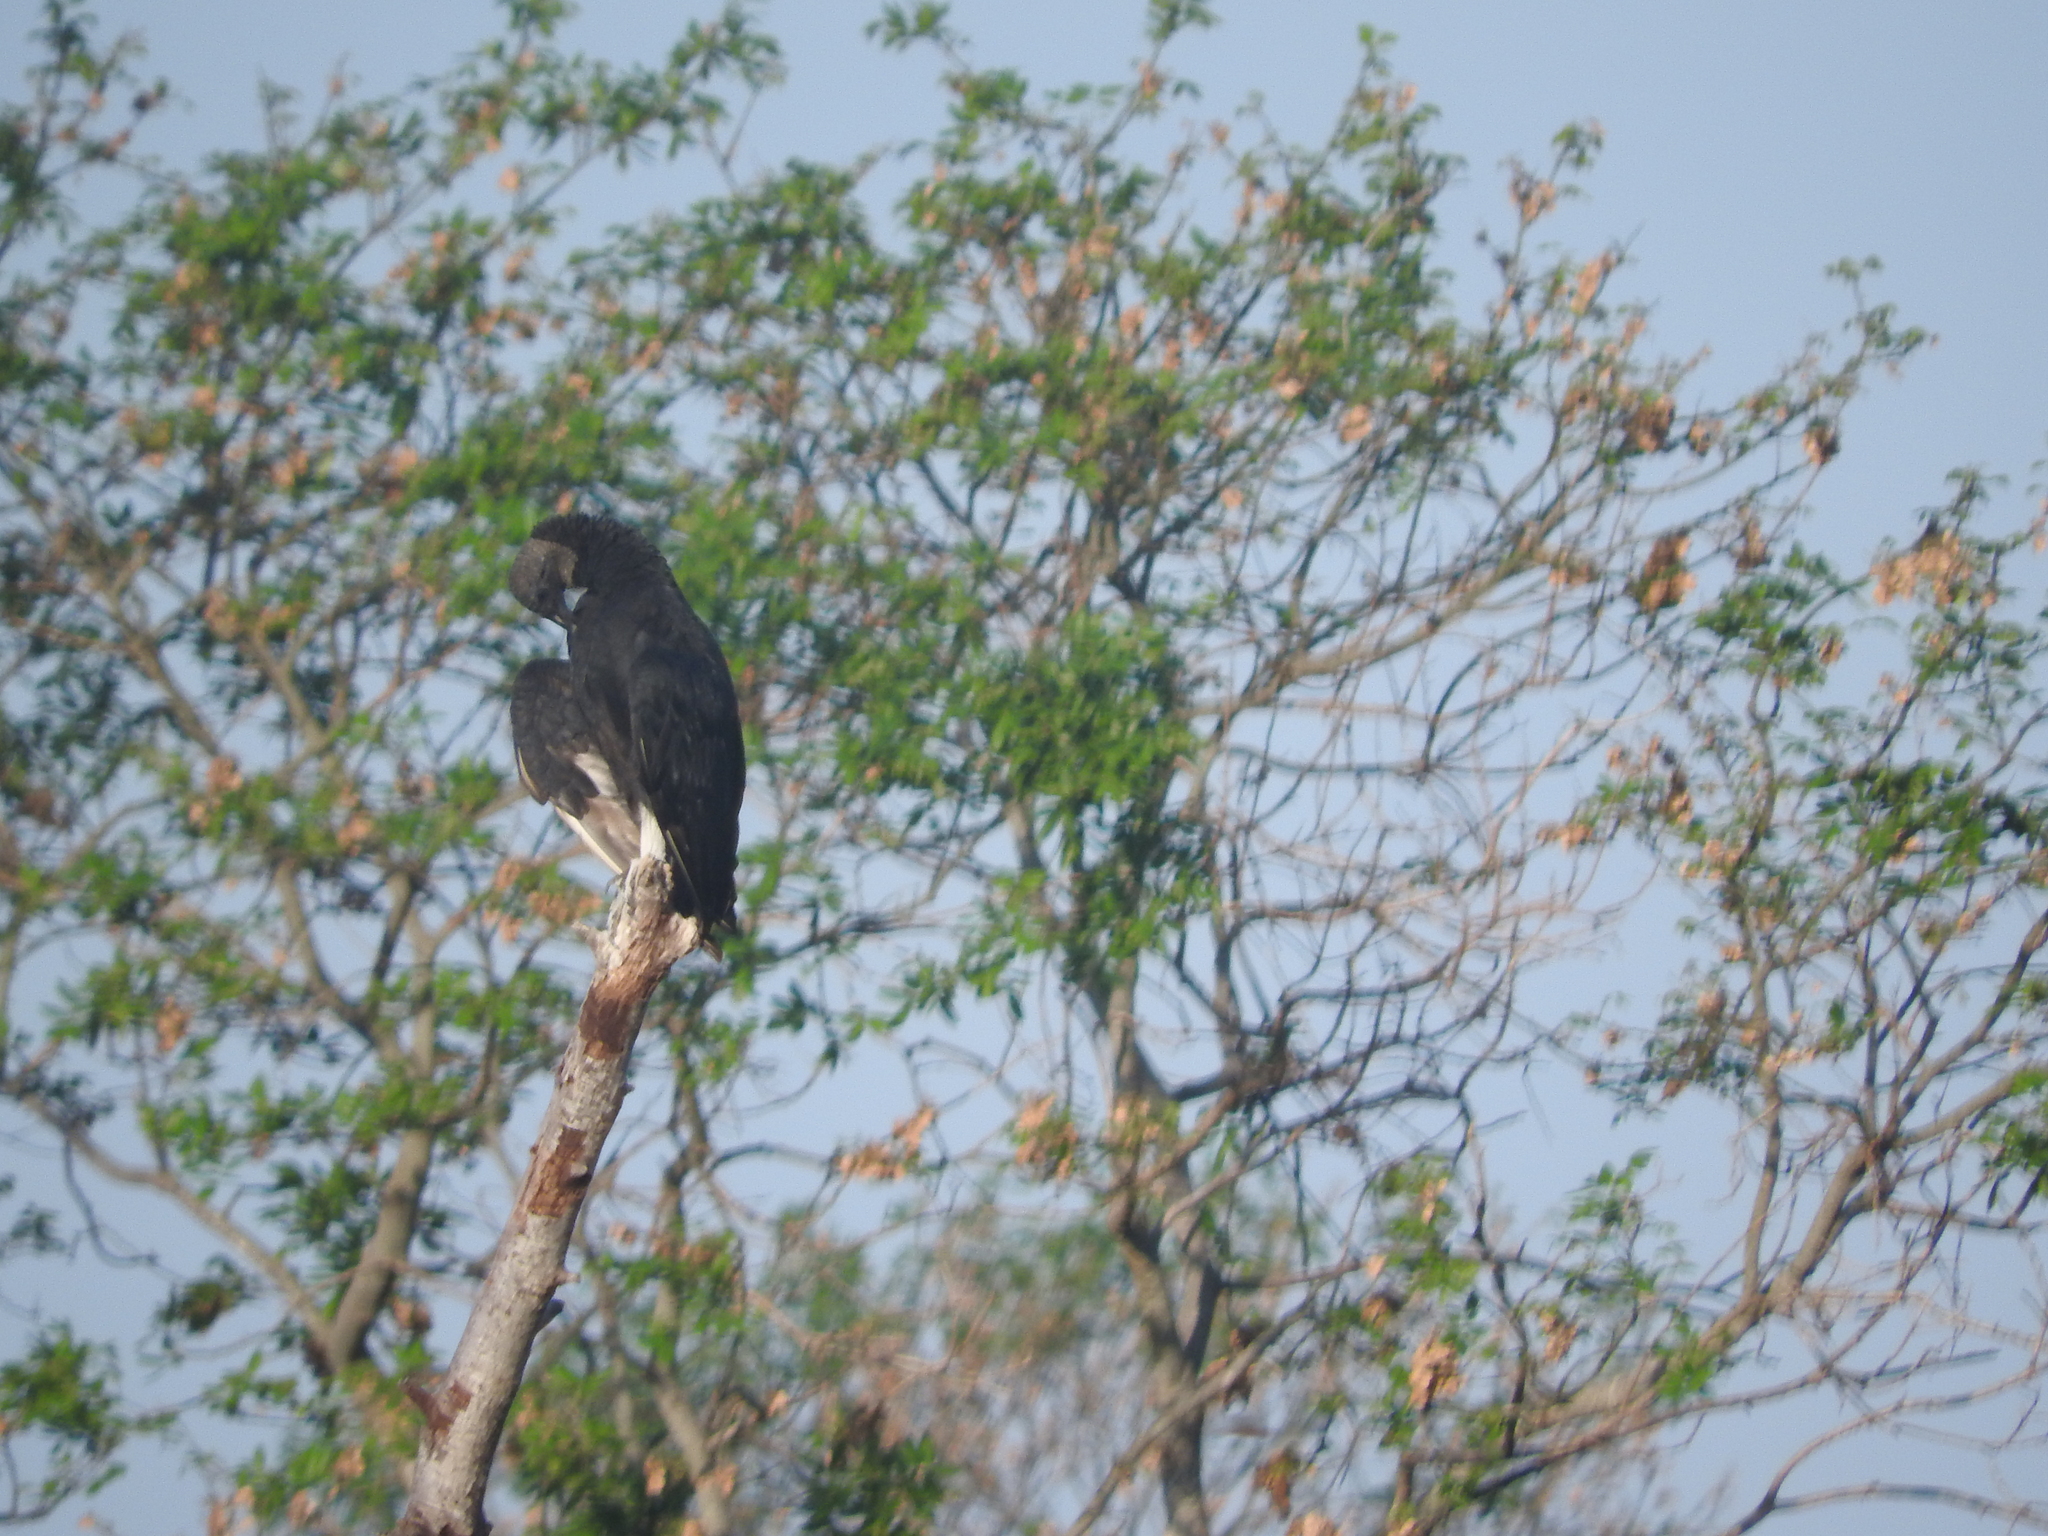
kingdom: Animalia
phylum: Chordata
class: Aves
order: Accipitriformes
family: Cathartidae
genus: Coragyps
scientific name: Coragyps atratus
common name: Black vulture
